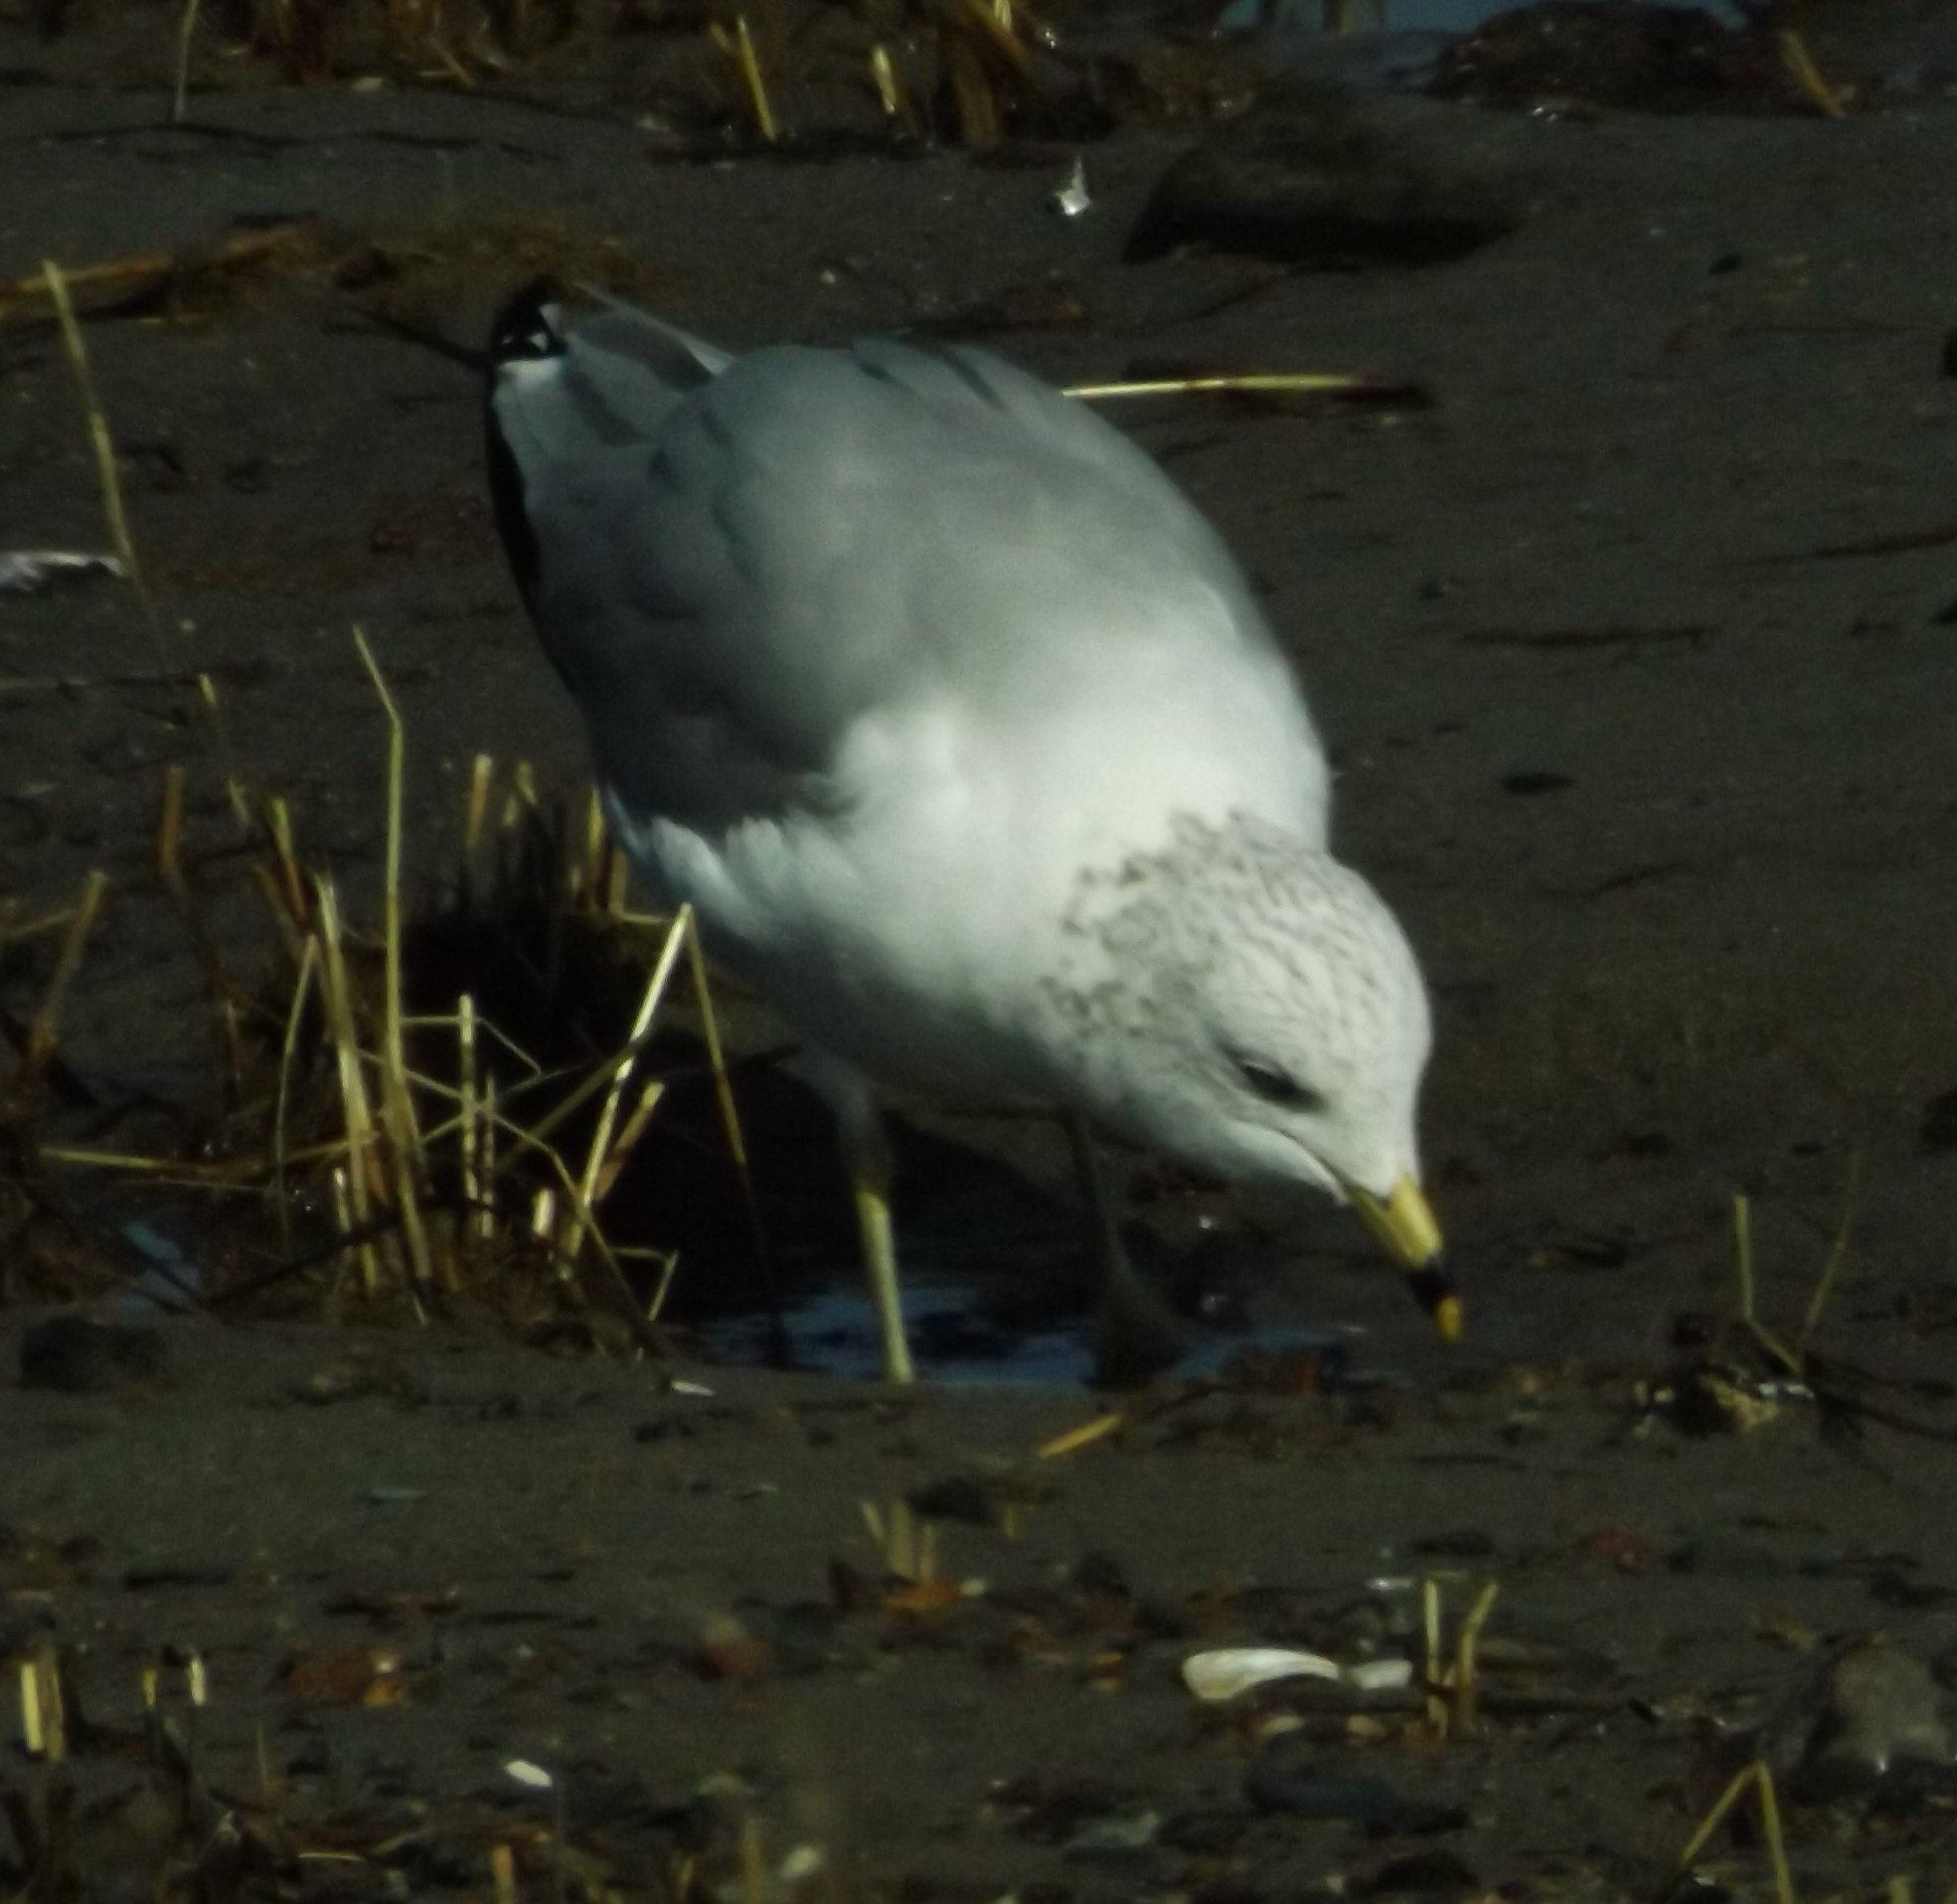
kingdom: Animalia
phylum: Chordata
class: Aves
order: Charadriiformes
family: Laridae
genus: Larus
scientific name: Larus delawarensis
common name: Ring-billed gull
